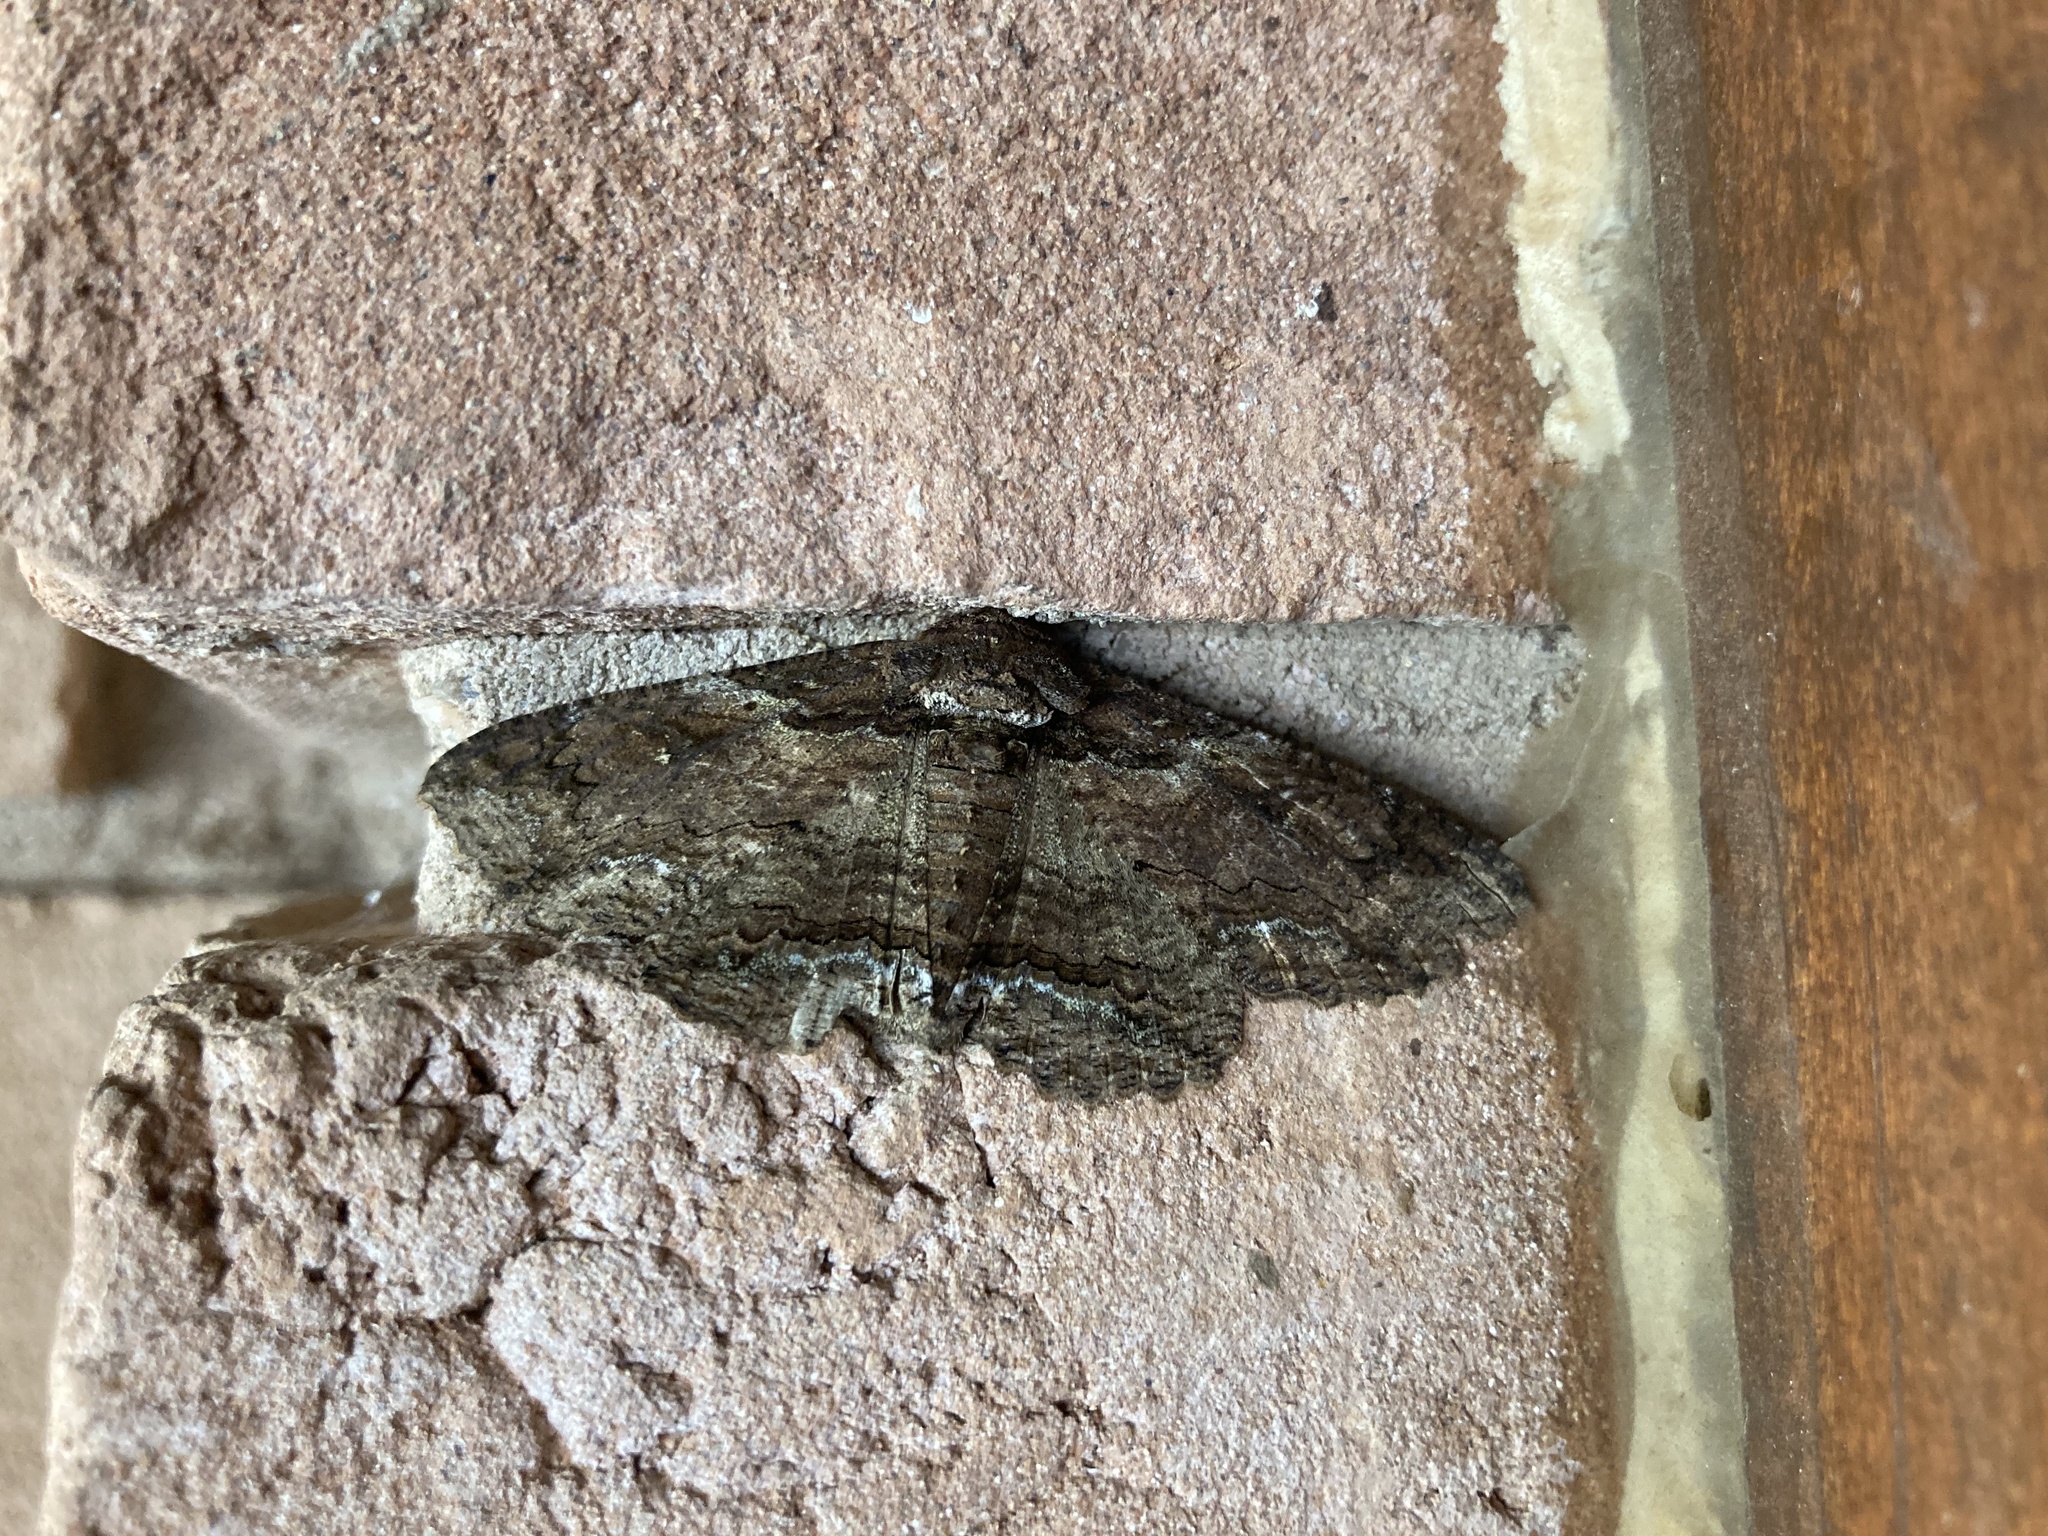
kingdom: Animalia
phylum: Arthropoda
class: Insecta
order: Lepidoptera
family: Erebidae
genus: Zale
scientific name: Zale lunata
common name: Lunate zale moth
